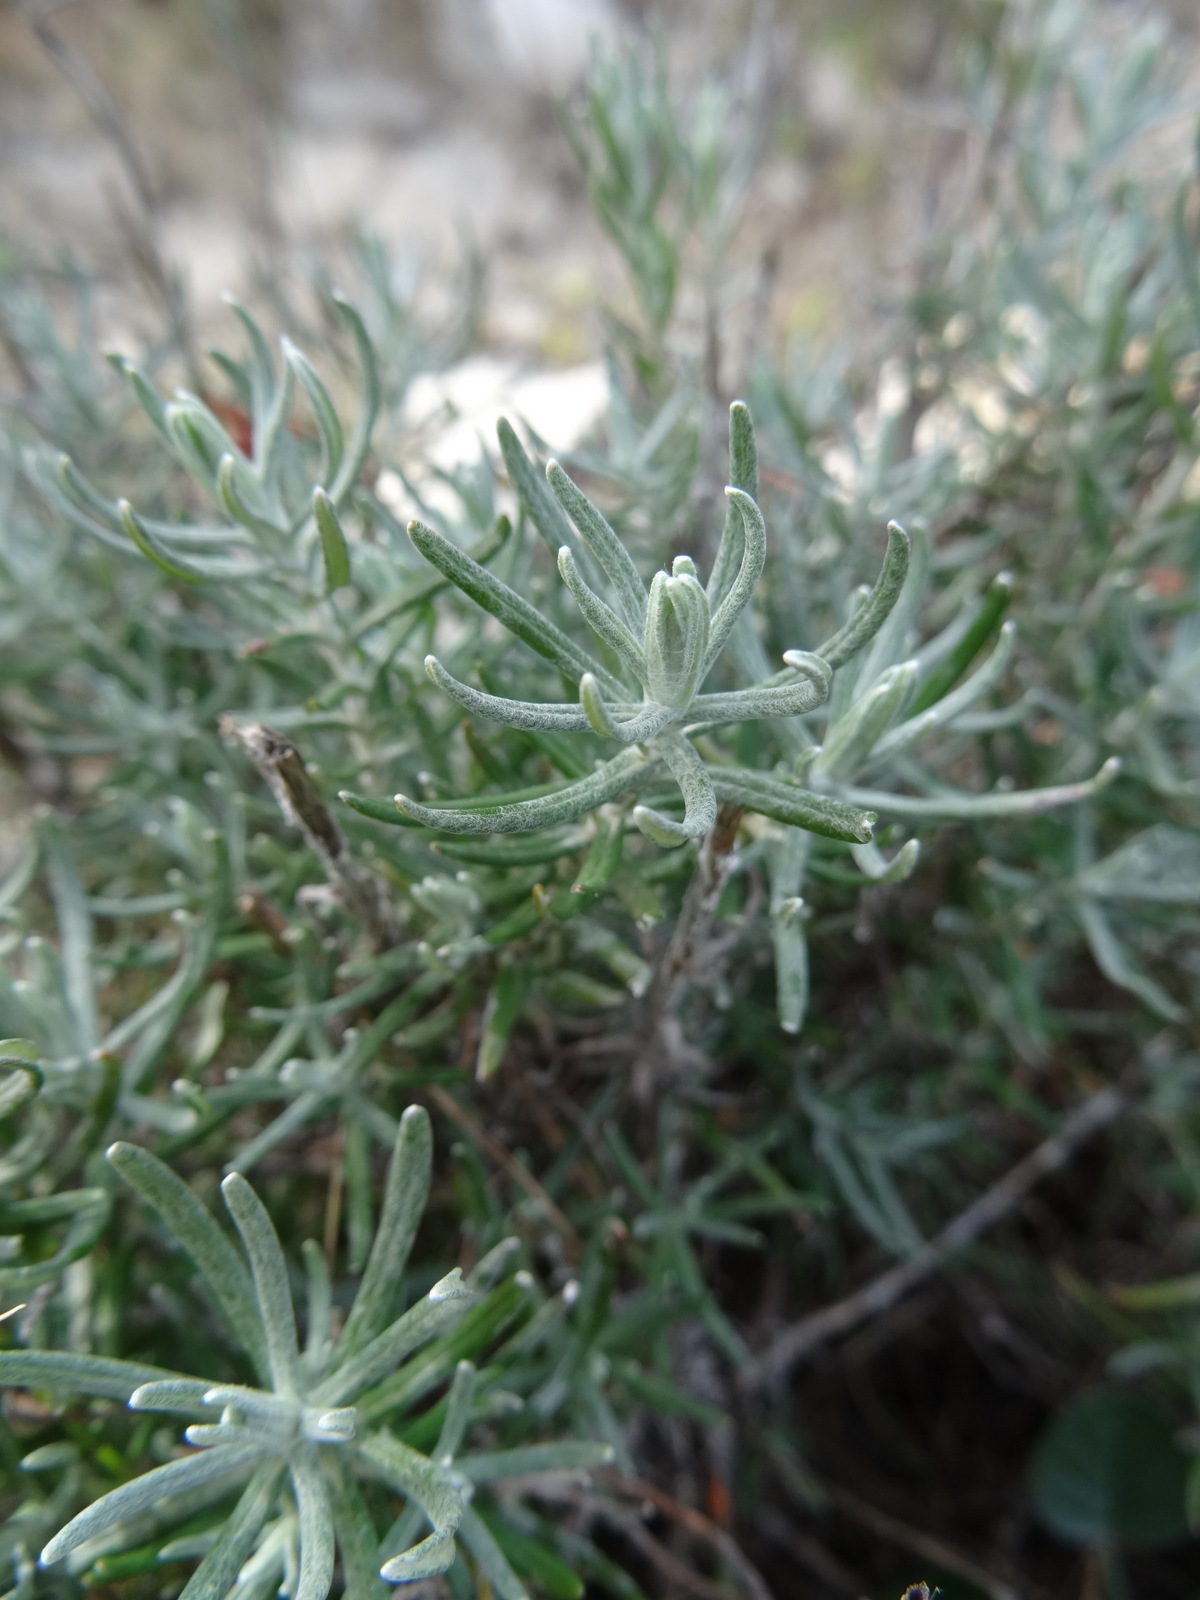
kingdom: Plantae
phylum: Tracheophyta
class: Magnoliopsida
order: Asterales
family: Asteraceae
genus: Helichrysum
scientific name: Helichrysum stoechas
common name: Goldilocks
